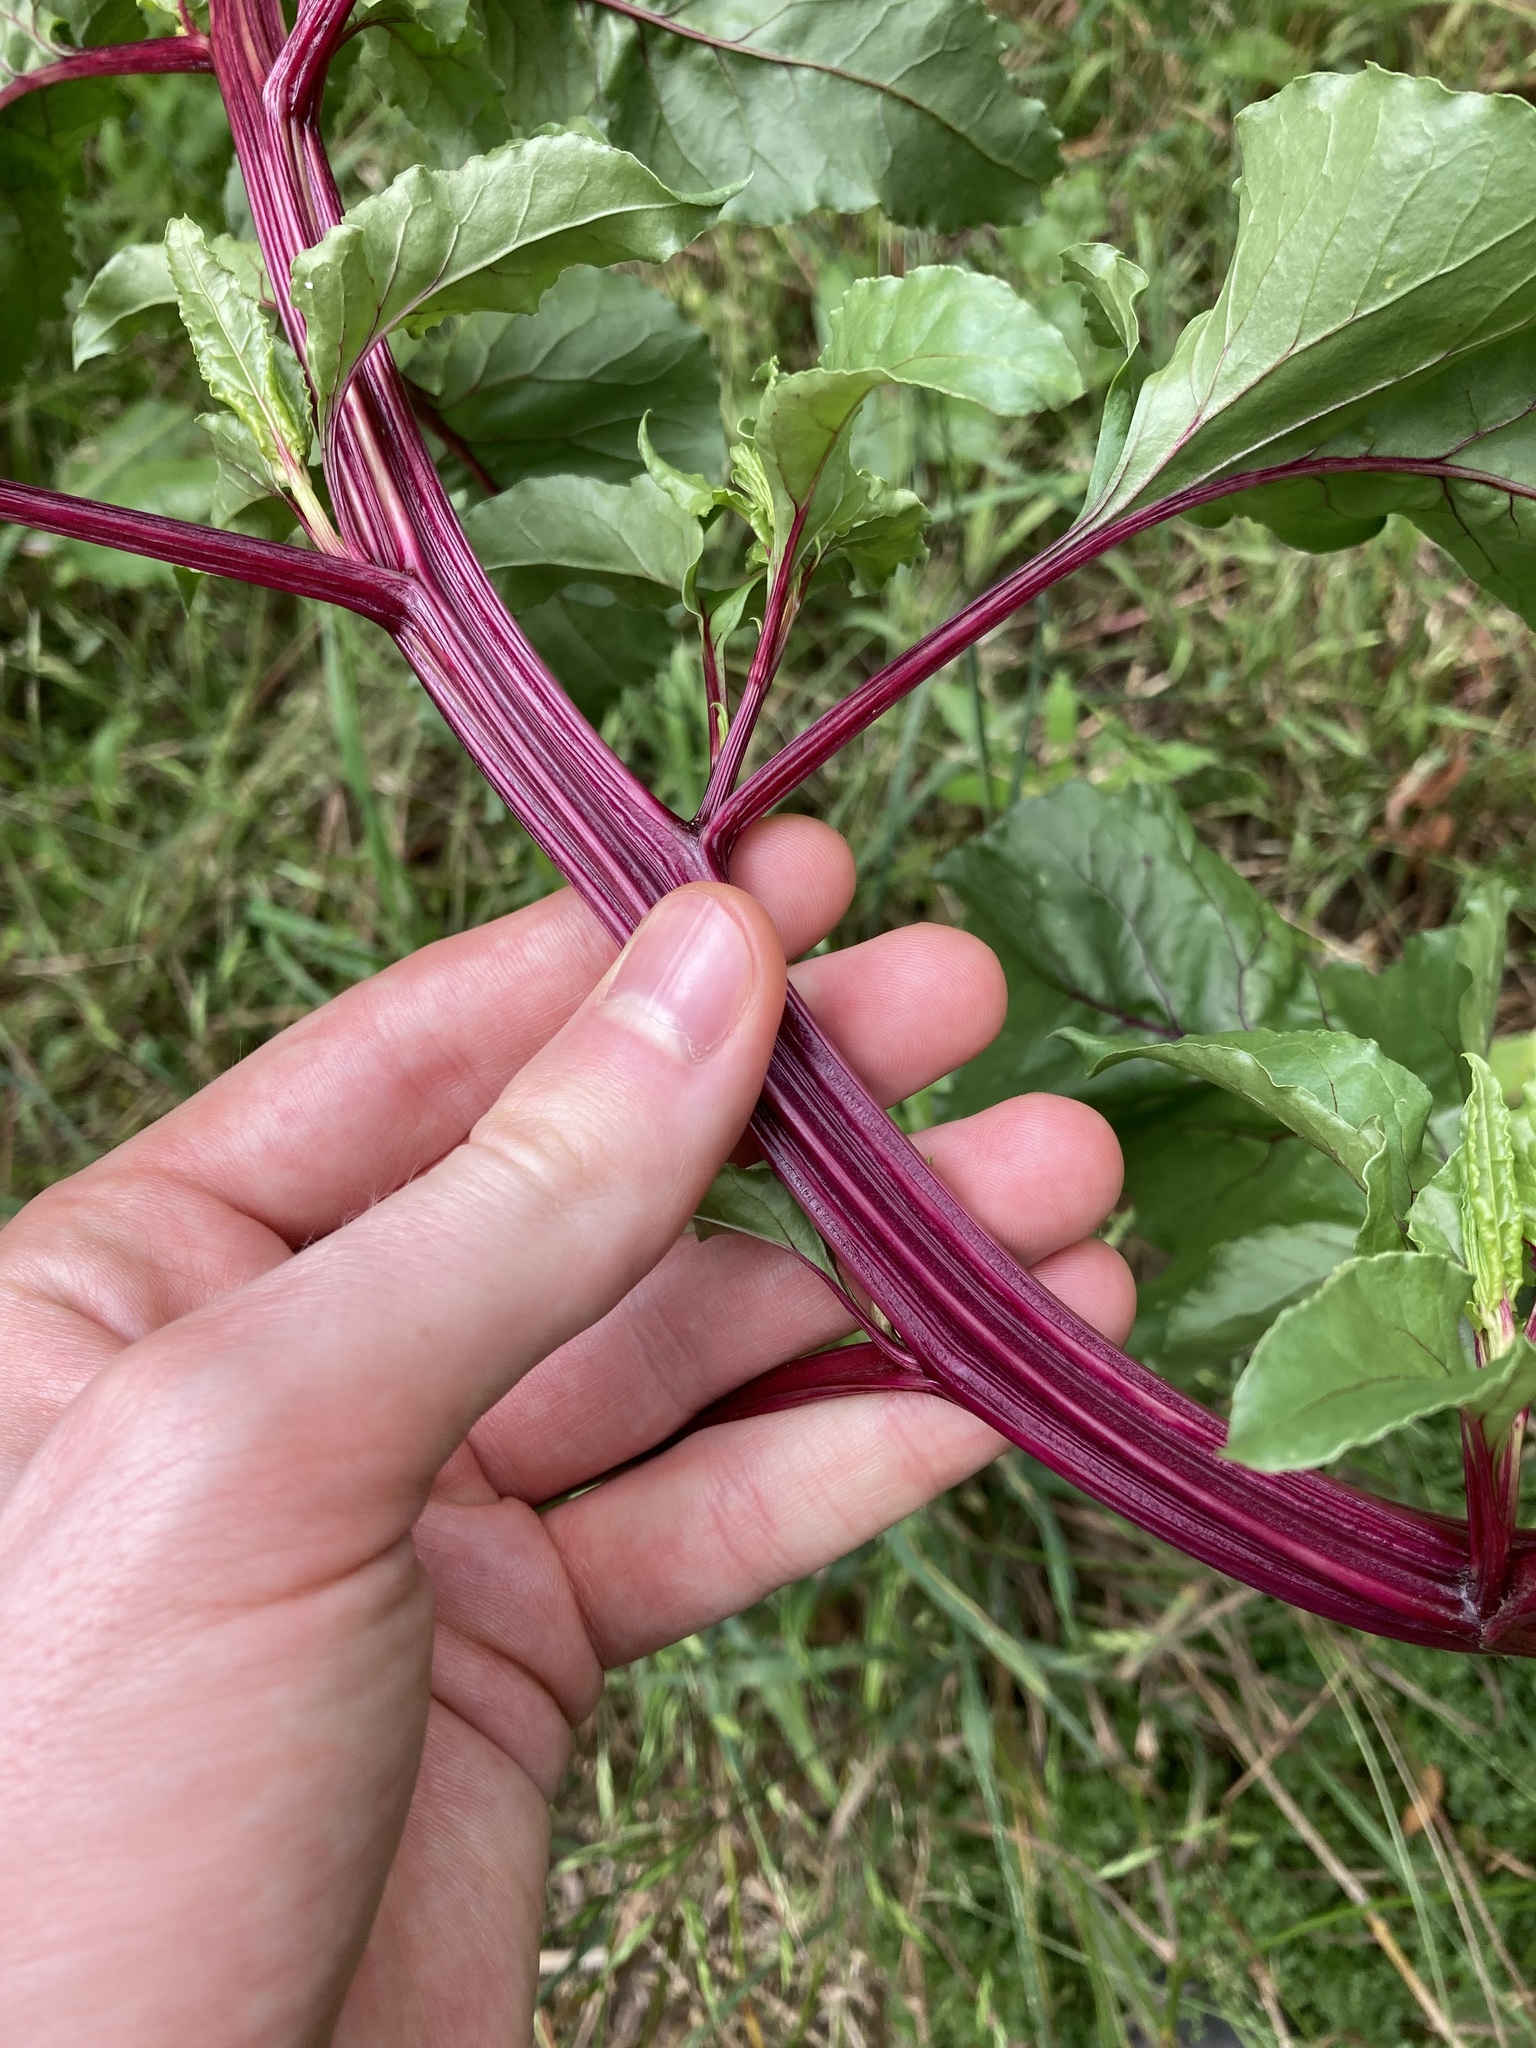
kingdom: Plantae
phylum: Tracheophyta
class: Magnoliopsida
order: Caryophyllales
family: Amaranthaceae
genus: Beta
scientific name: Beta vulgaris
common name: Beet
